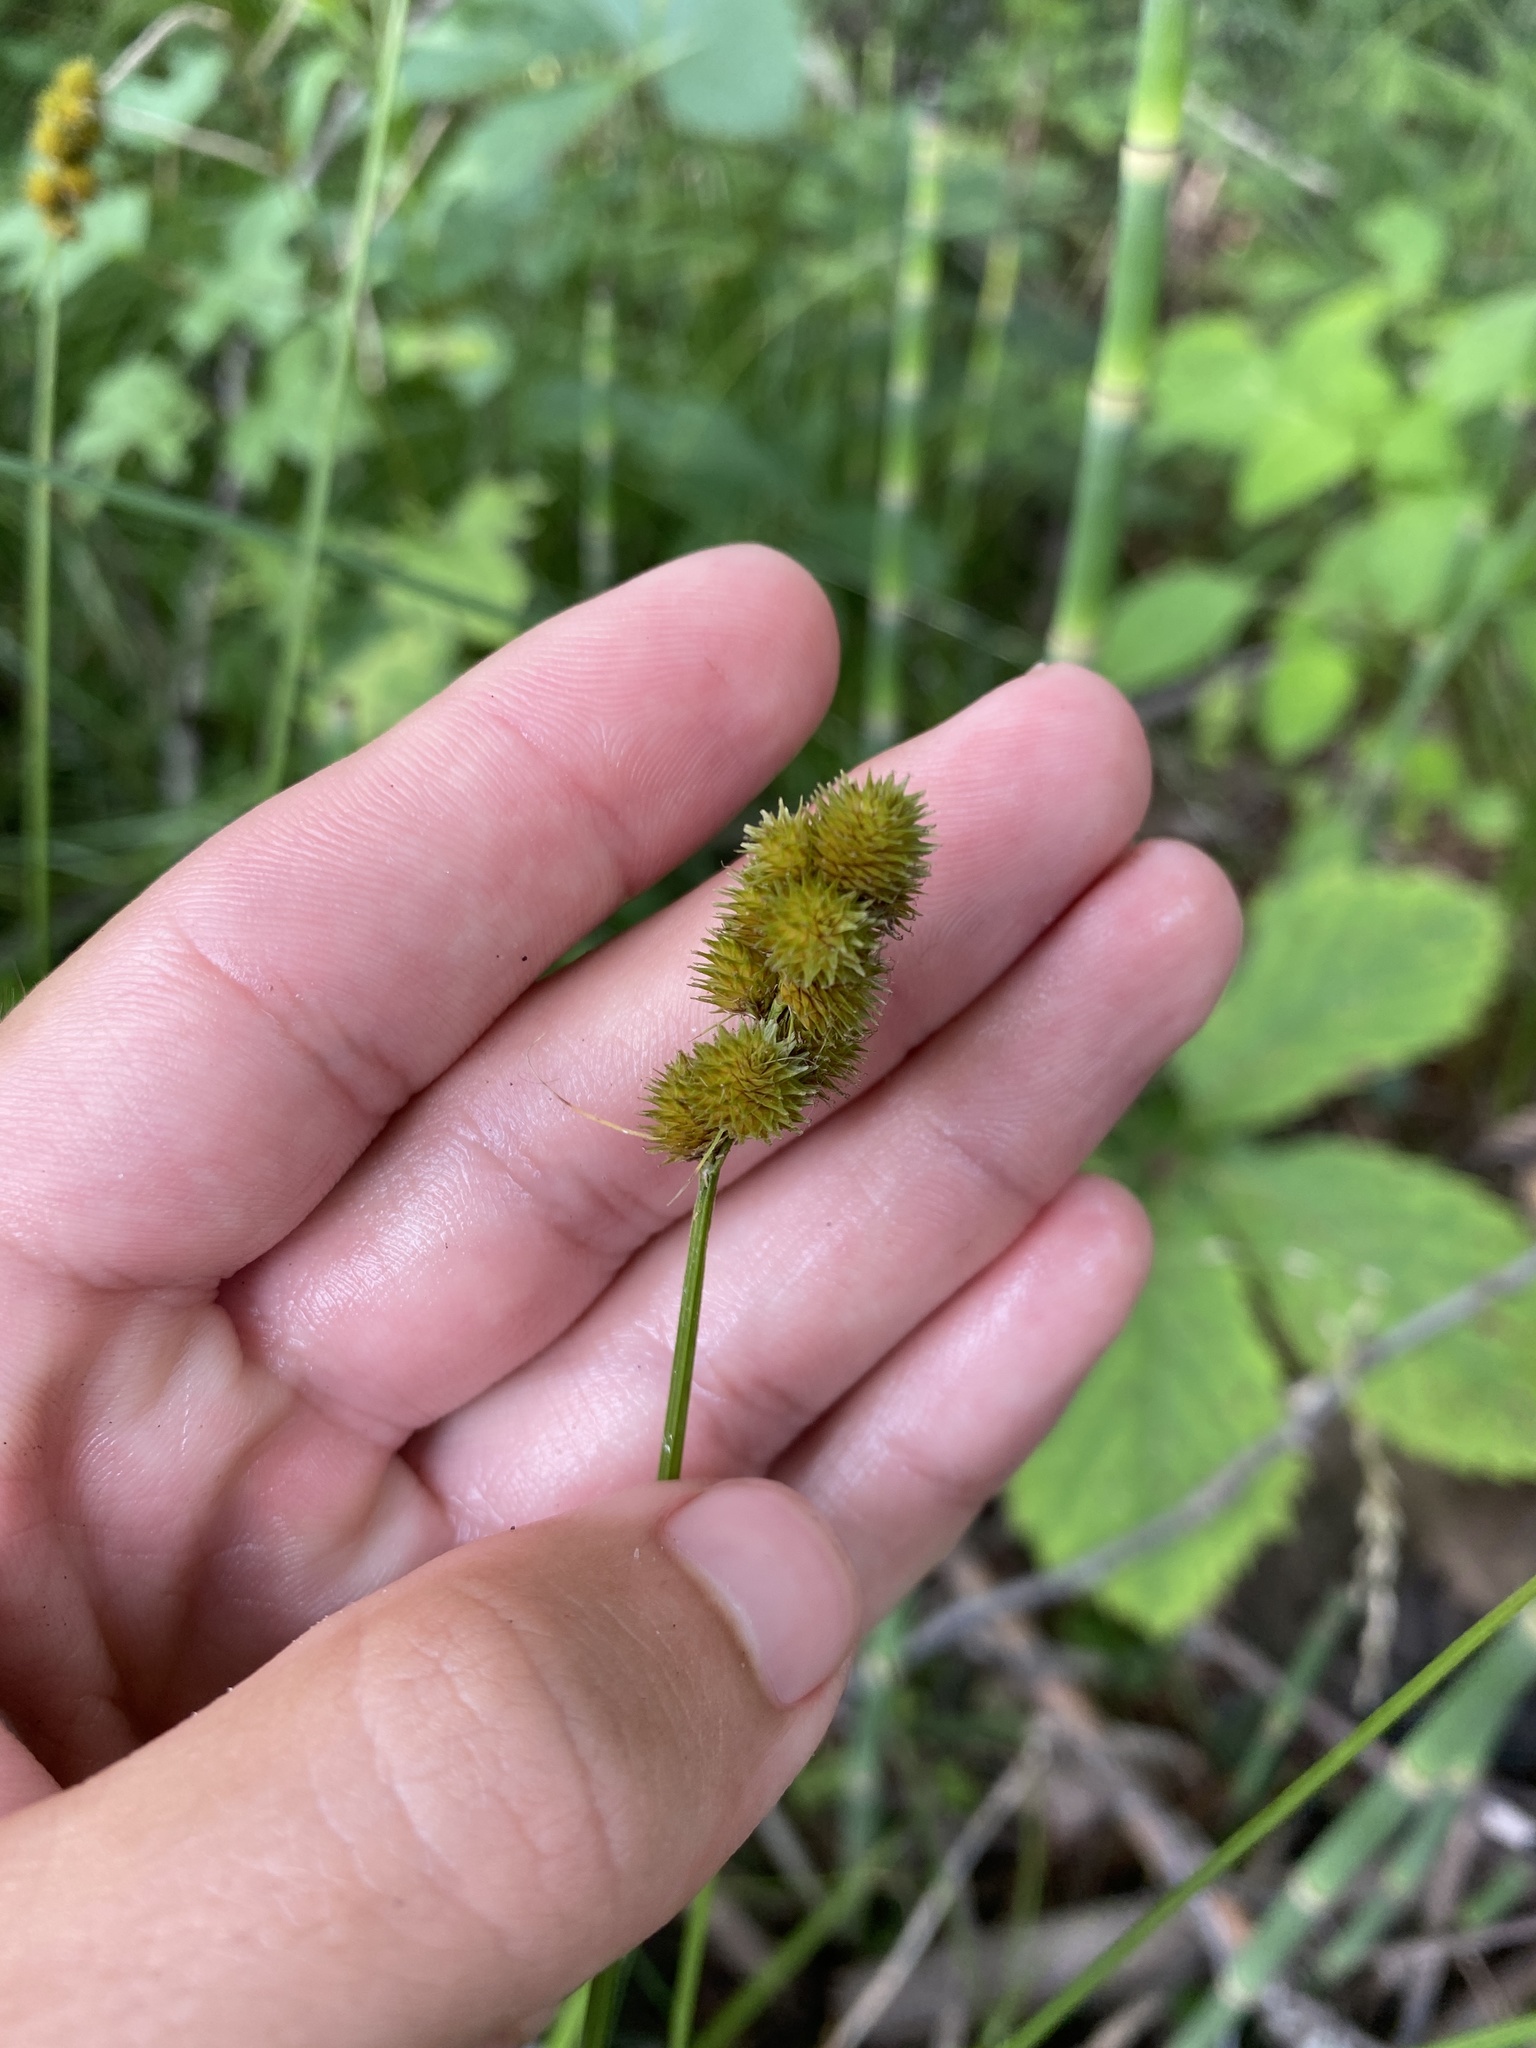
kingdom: Plantae
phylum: Tracheophyta
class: Liliopsida
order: Poales
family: Cyperaceae
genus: Carex
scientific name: Carex cristatella
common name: Crested oval sedge
